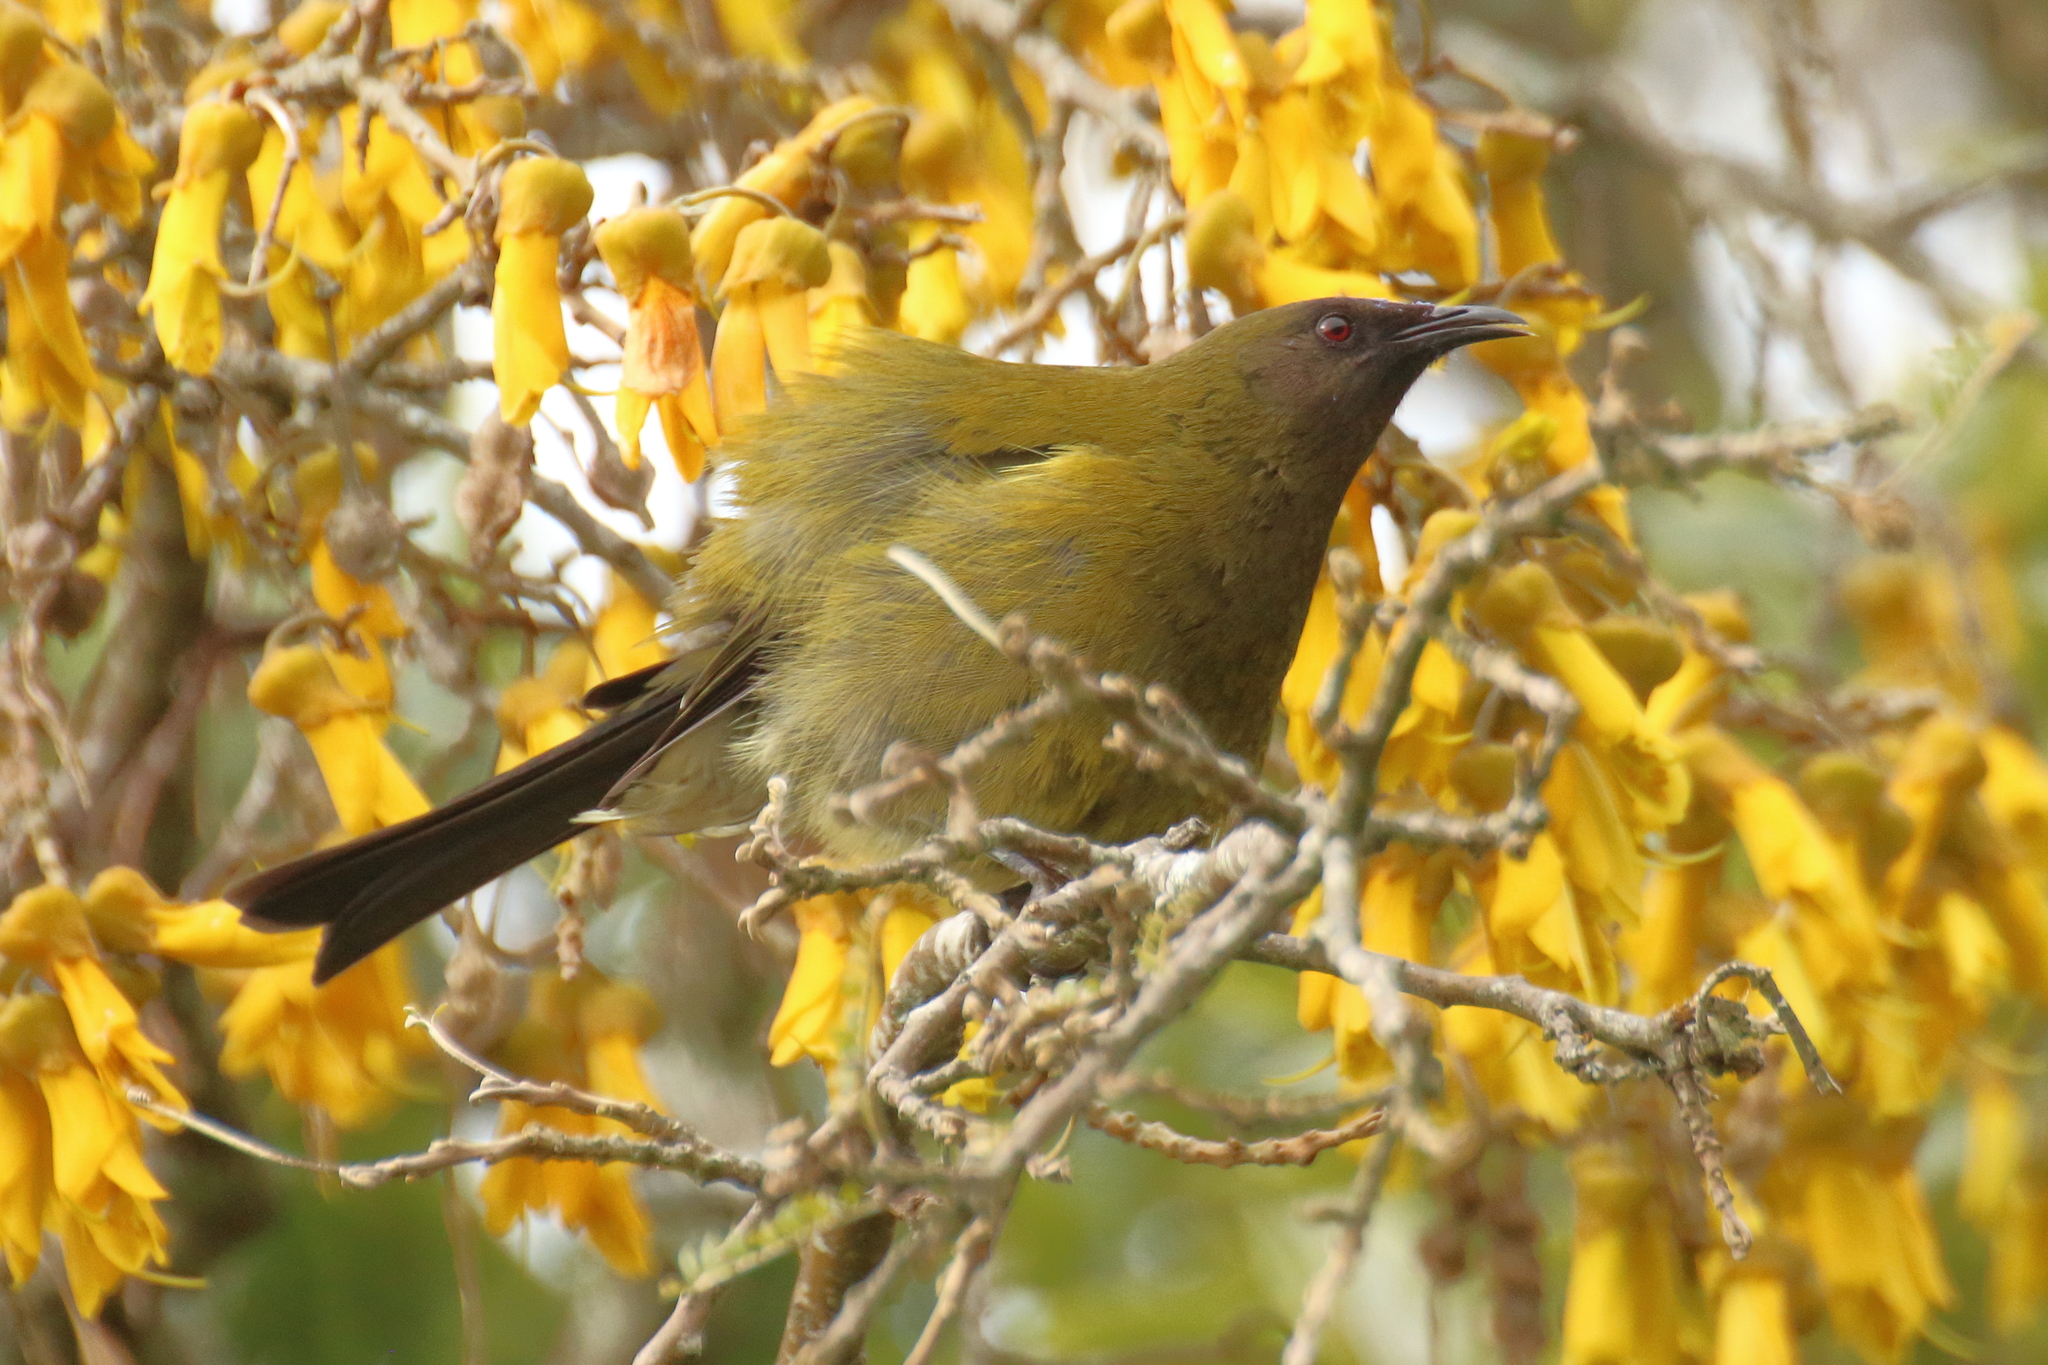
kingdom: Animalia
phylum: Chordata
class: Aves
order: Passeriformes
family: Meliphagidae
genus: Anthornis
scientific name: Anthornis melanura
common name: New zealand bellbird
